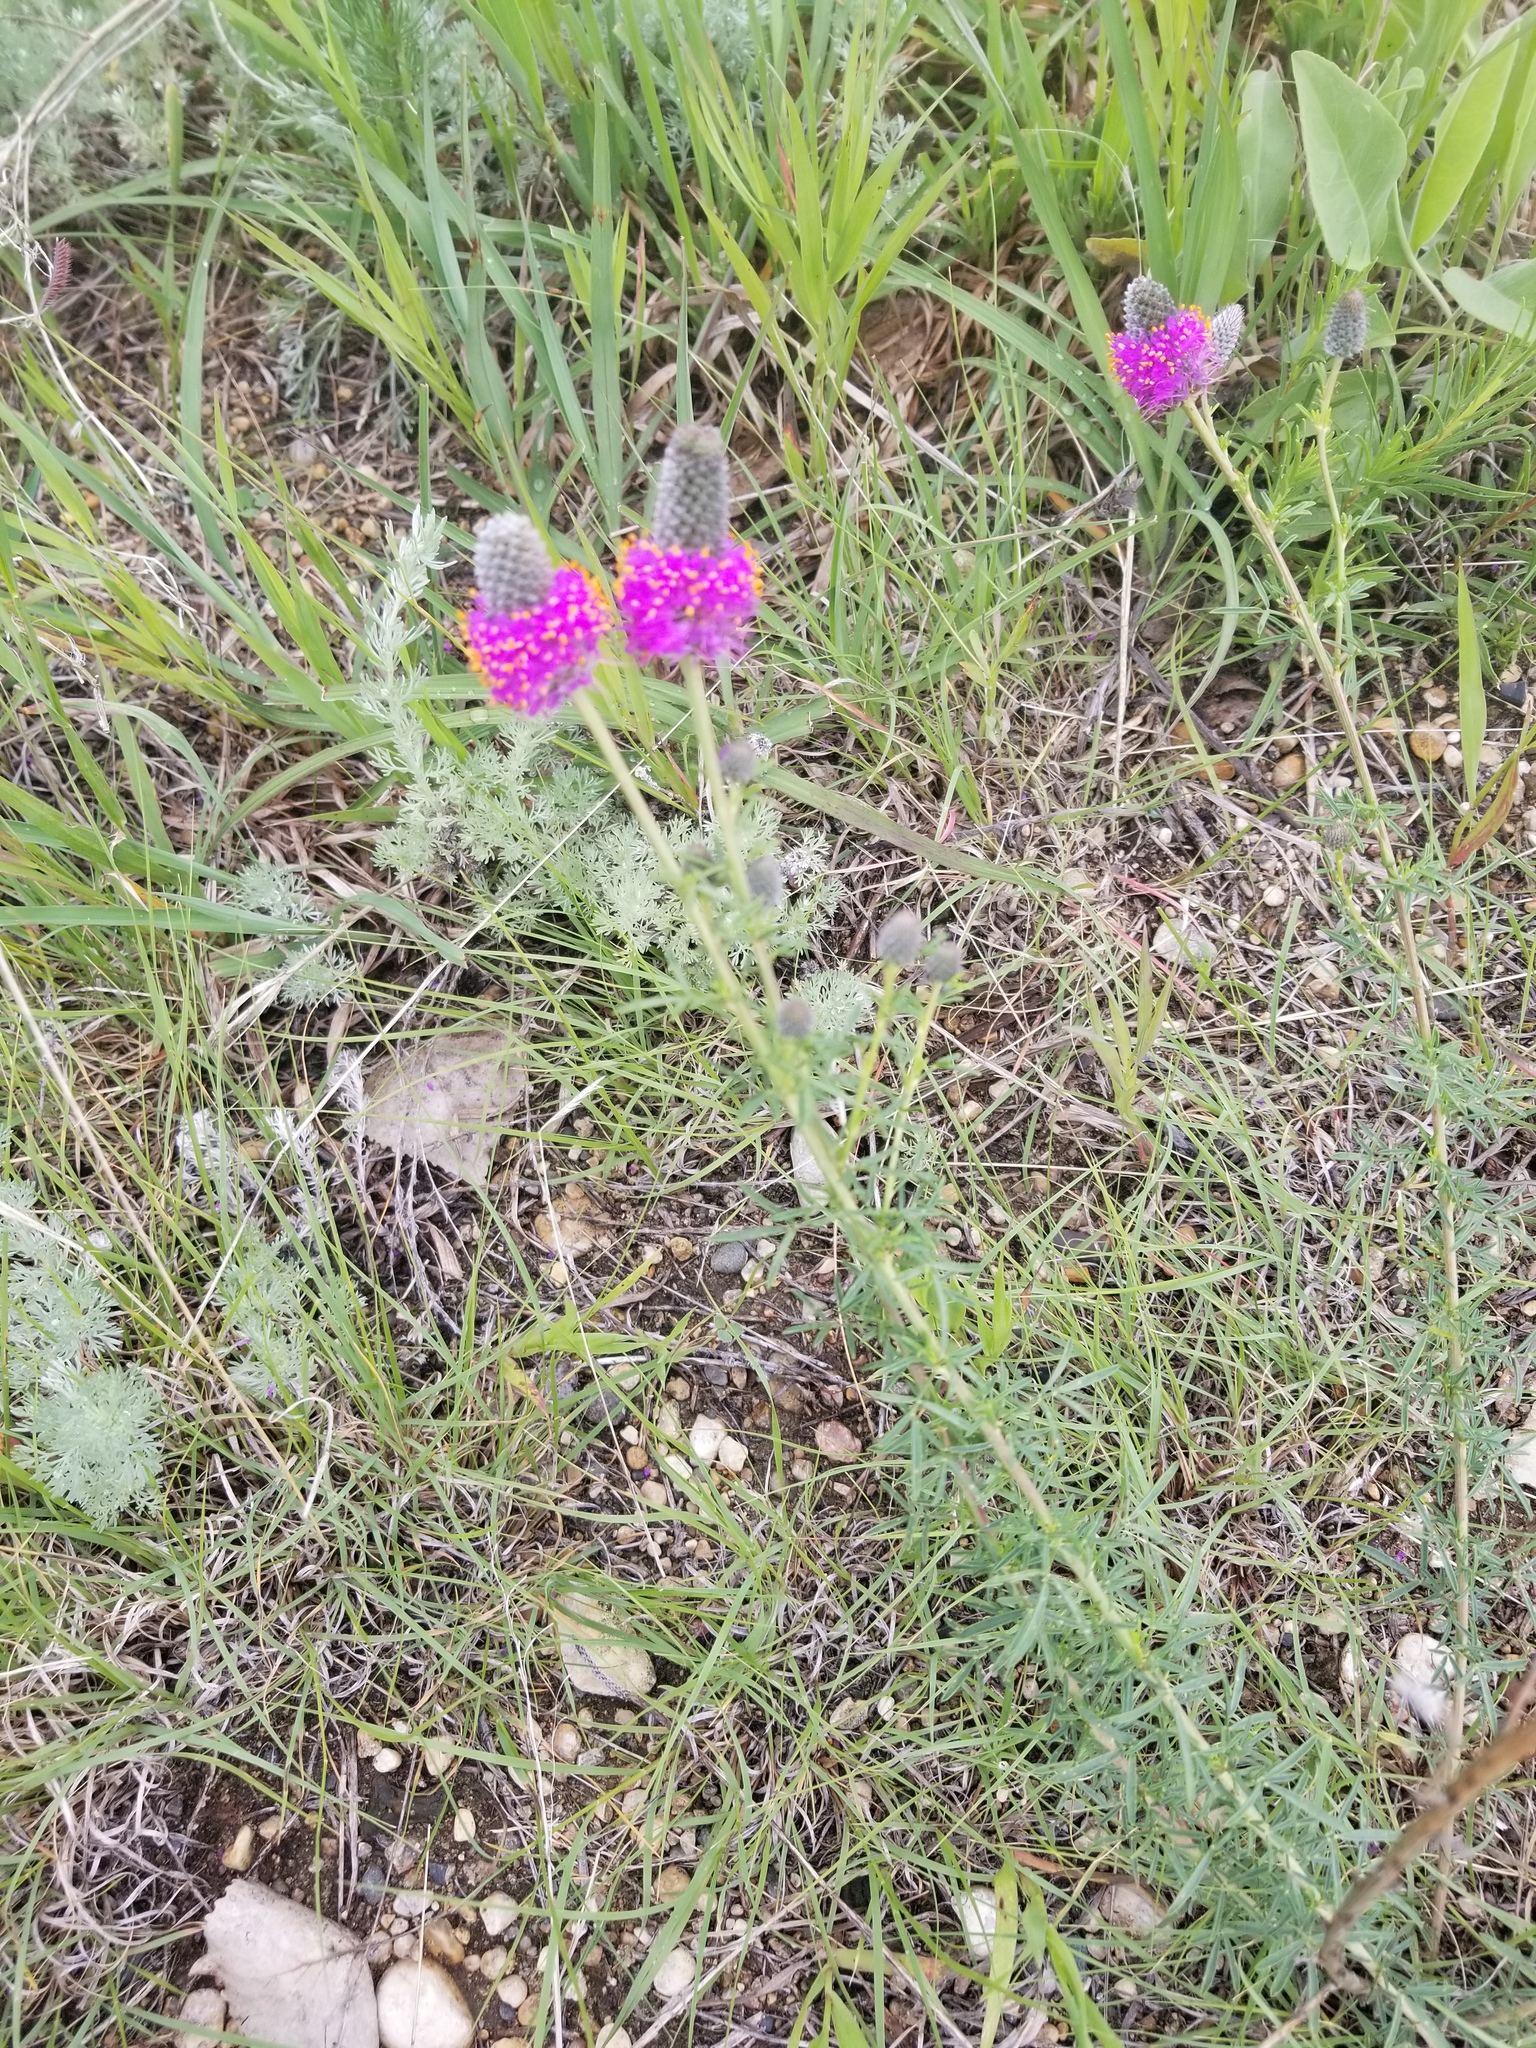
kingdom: Plantae
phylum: Tracheophyta
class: Magnoliopsida
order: Fabales
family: Fabaceae
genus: Dalea
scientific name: Dalea purpurea
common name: Purple prairie-clover
